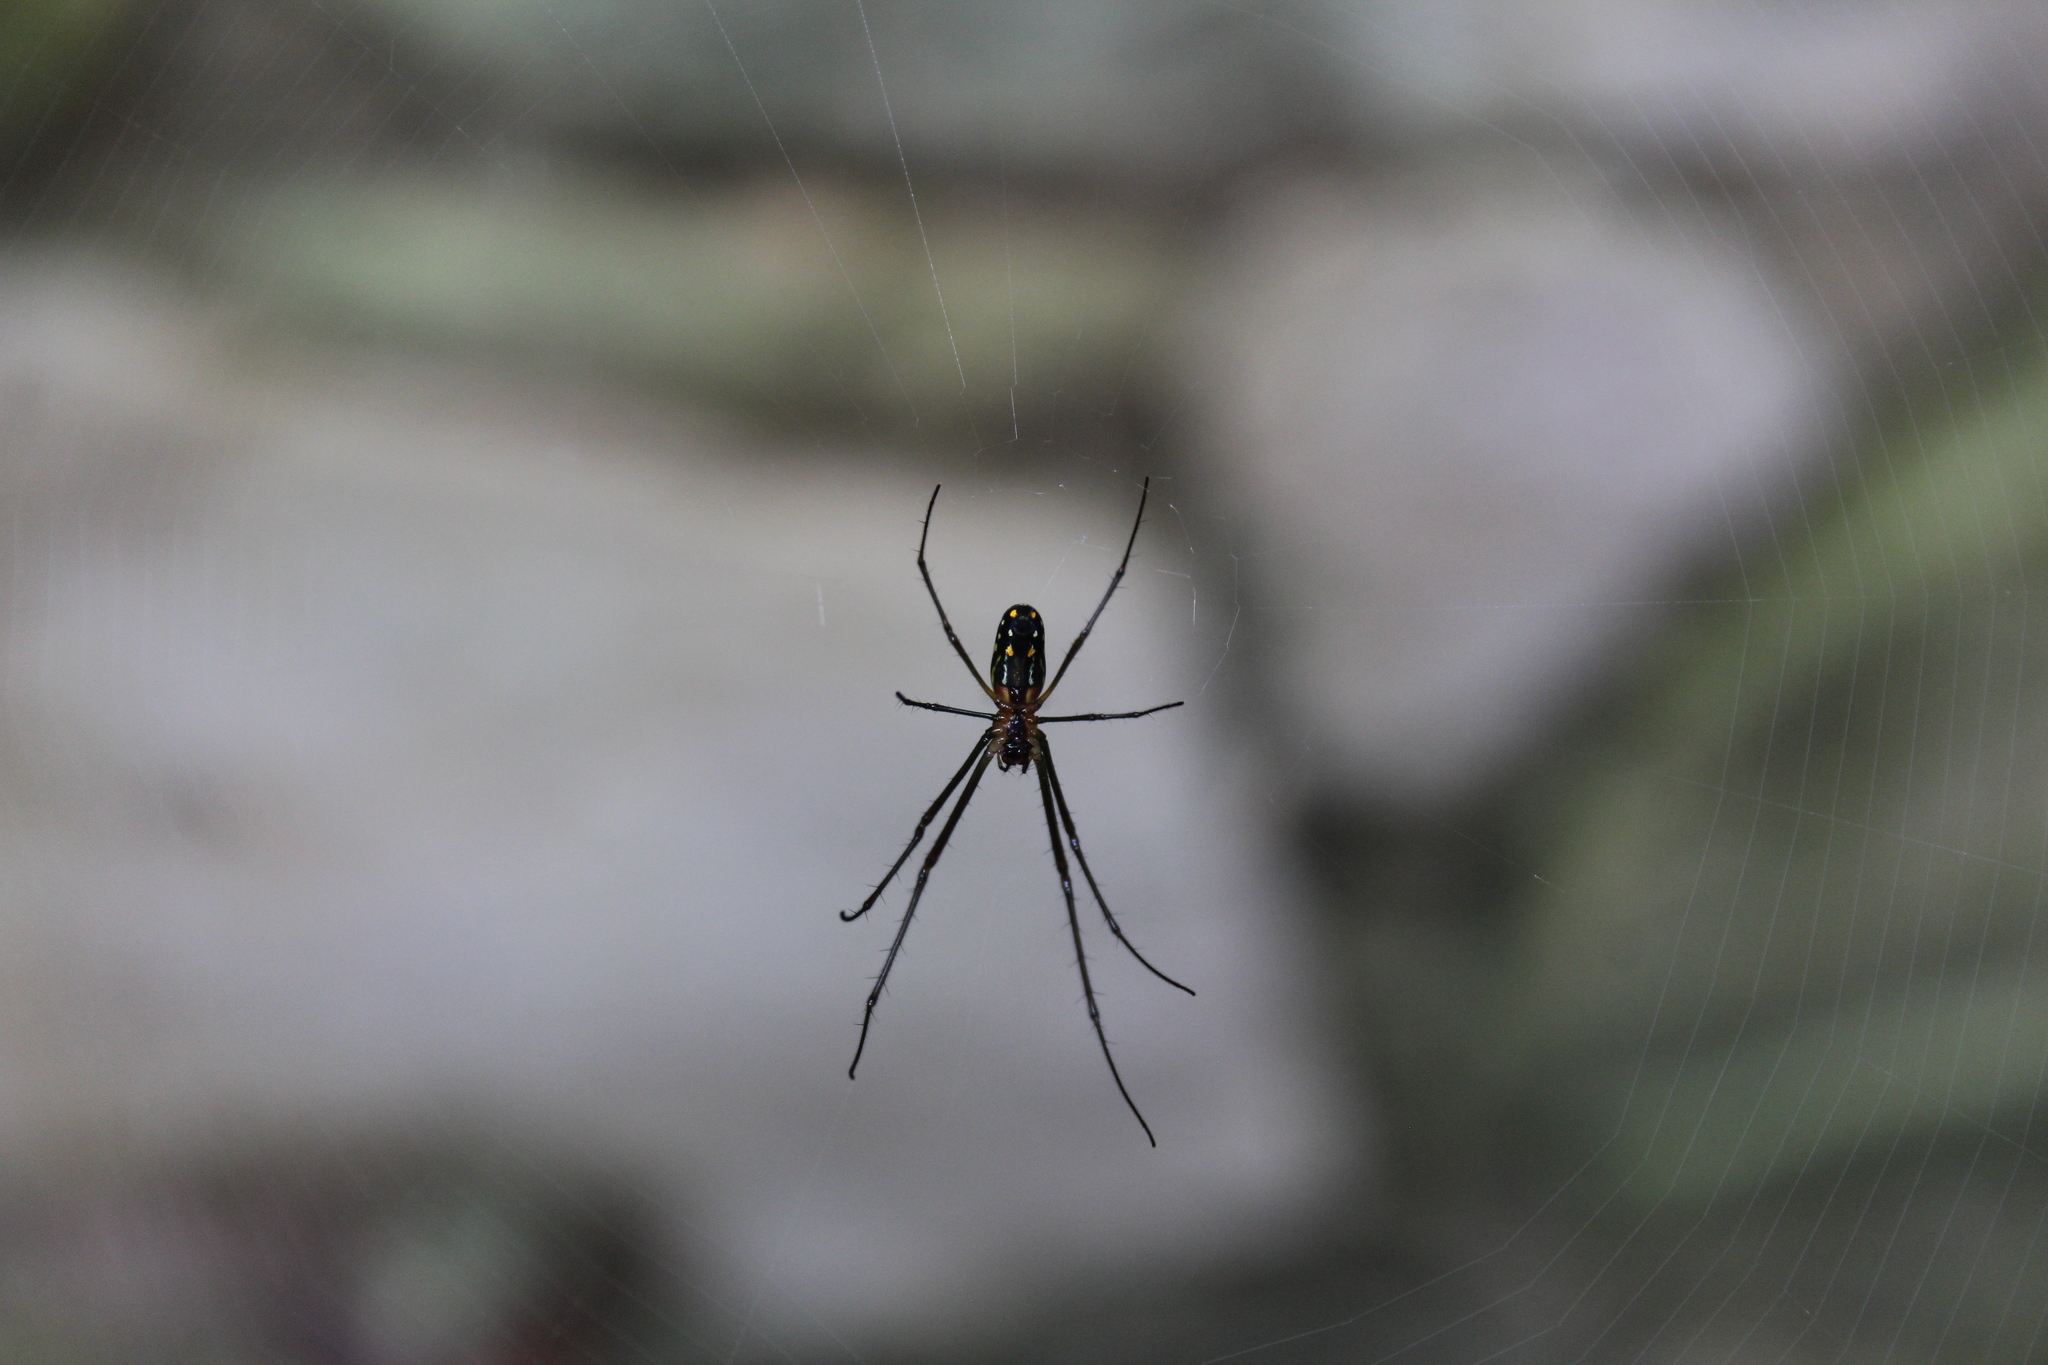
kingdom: Animalia
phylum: Arthropoda
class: Arachnida
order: Araneae
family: Tetragnathidae
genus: Leucauge
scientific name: Leucauge argyra
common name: Longjawed orb weavers
